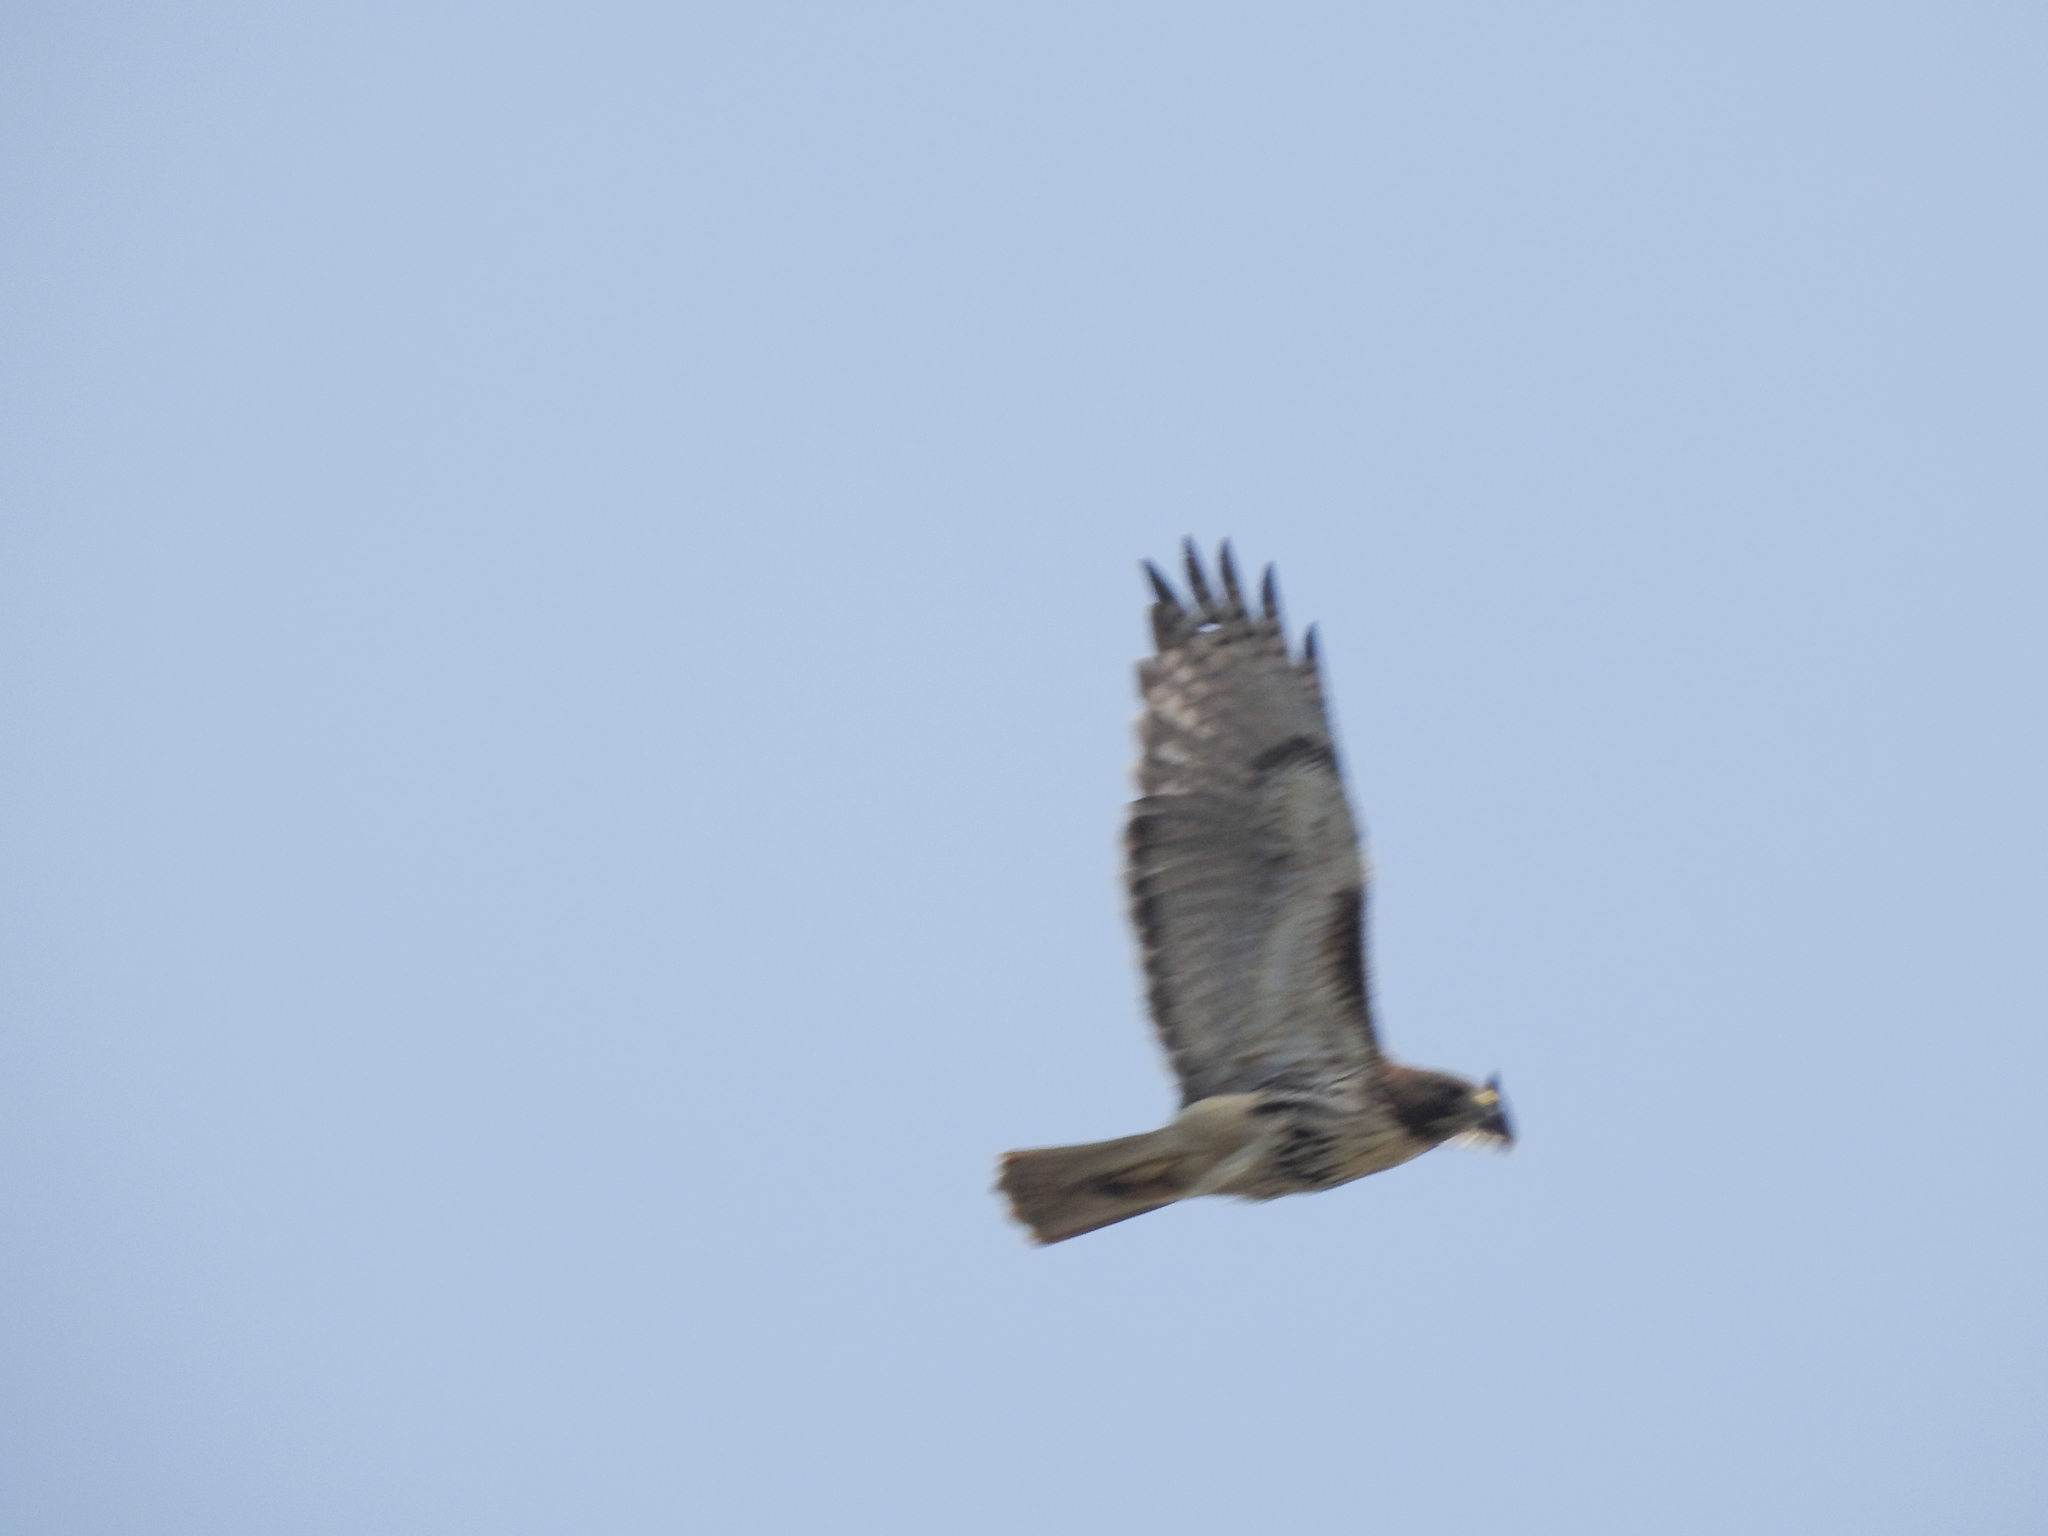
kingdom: Animalia
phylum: Chordata
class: Aves
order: Accipitriformes
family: Accipitridae
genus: Buteo
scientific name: Buteo jamaicensis
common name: Red-tailed hawk
